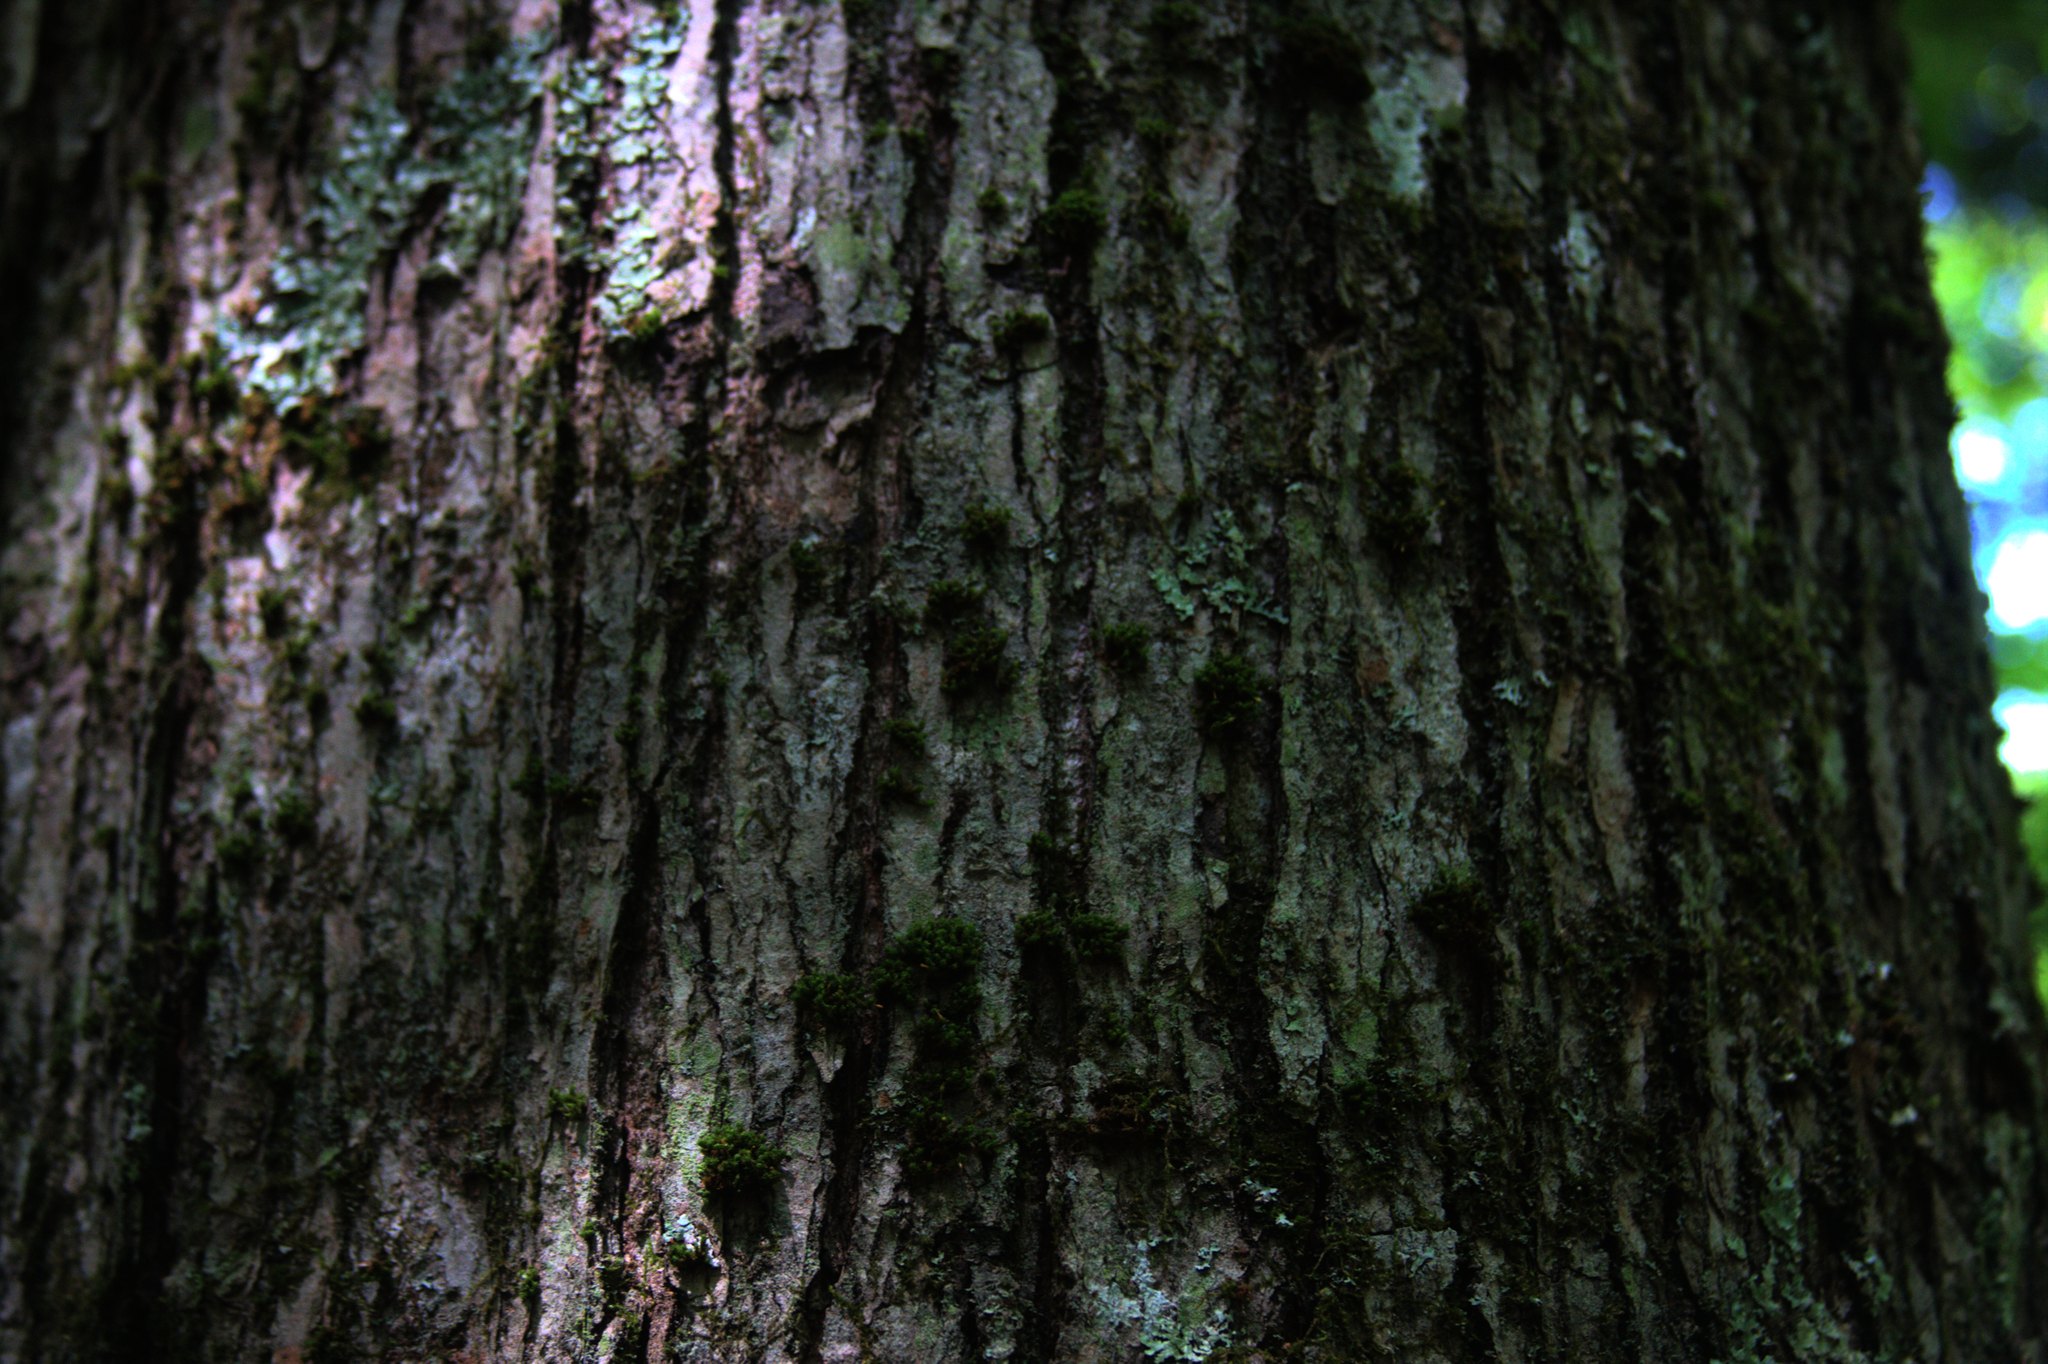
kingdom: Plantae
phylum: Bryophyta
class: Bryopsida
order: Orthotrichales
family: Orthotrichaceae
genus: Ulota
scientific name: Ulota crispa
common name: Crisped pincushion moss
